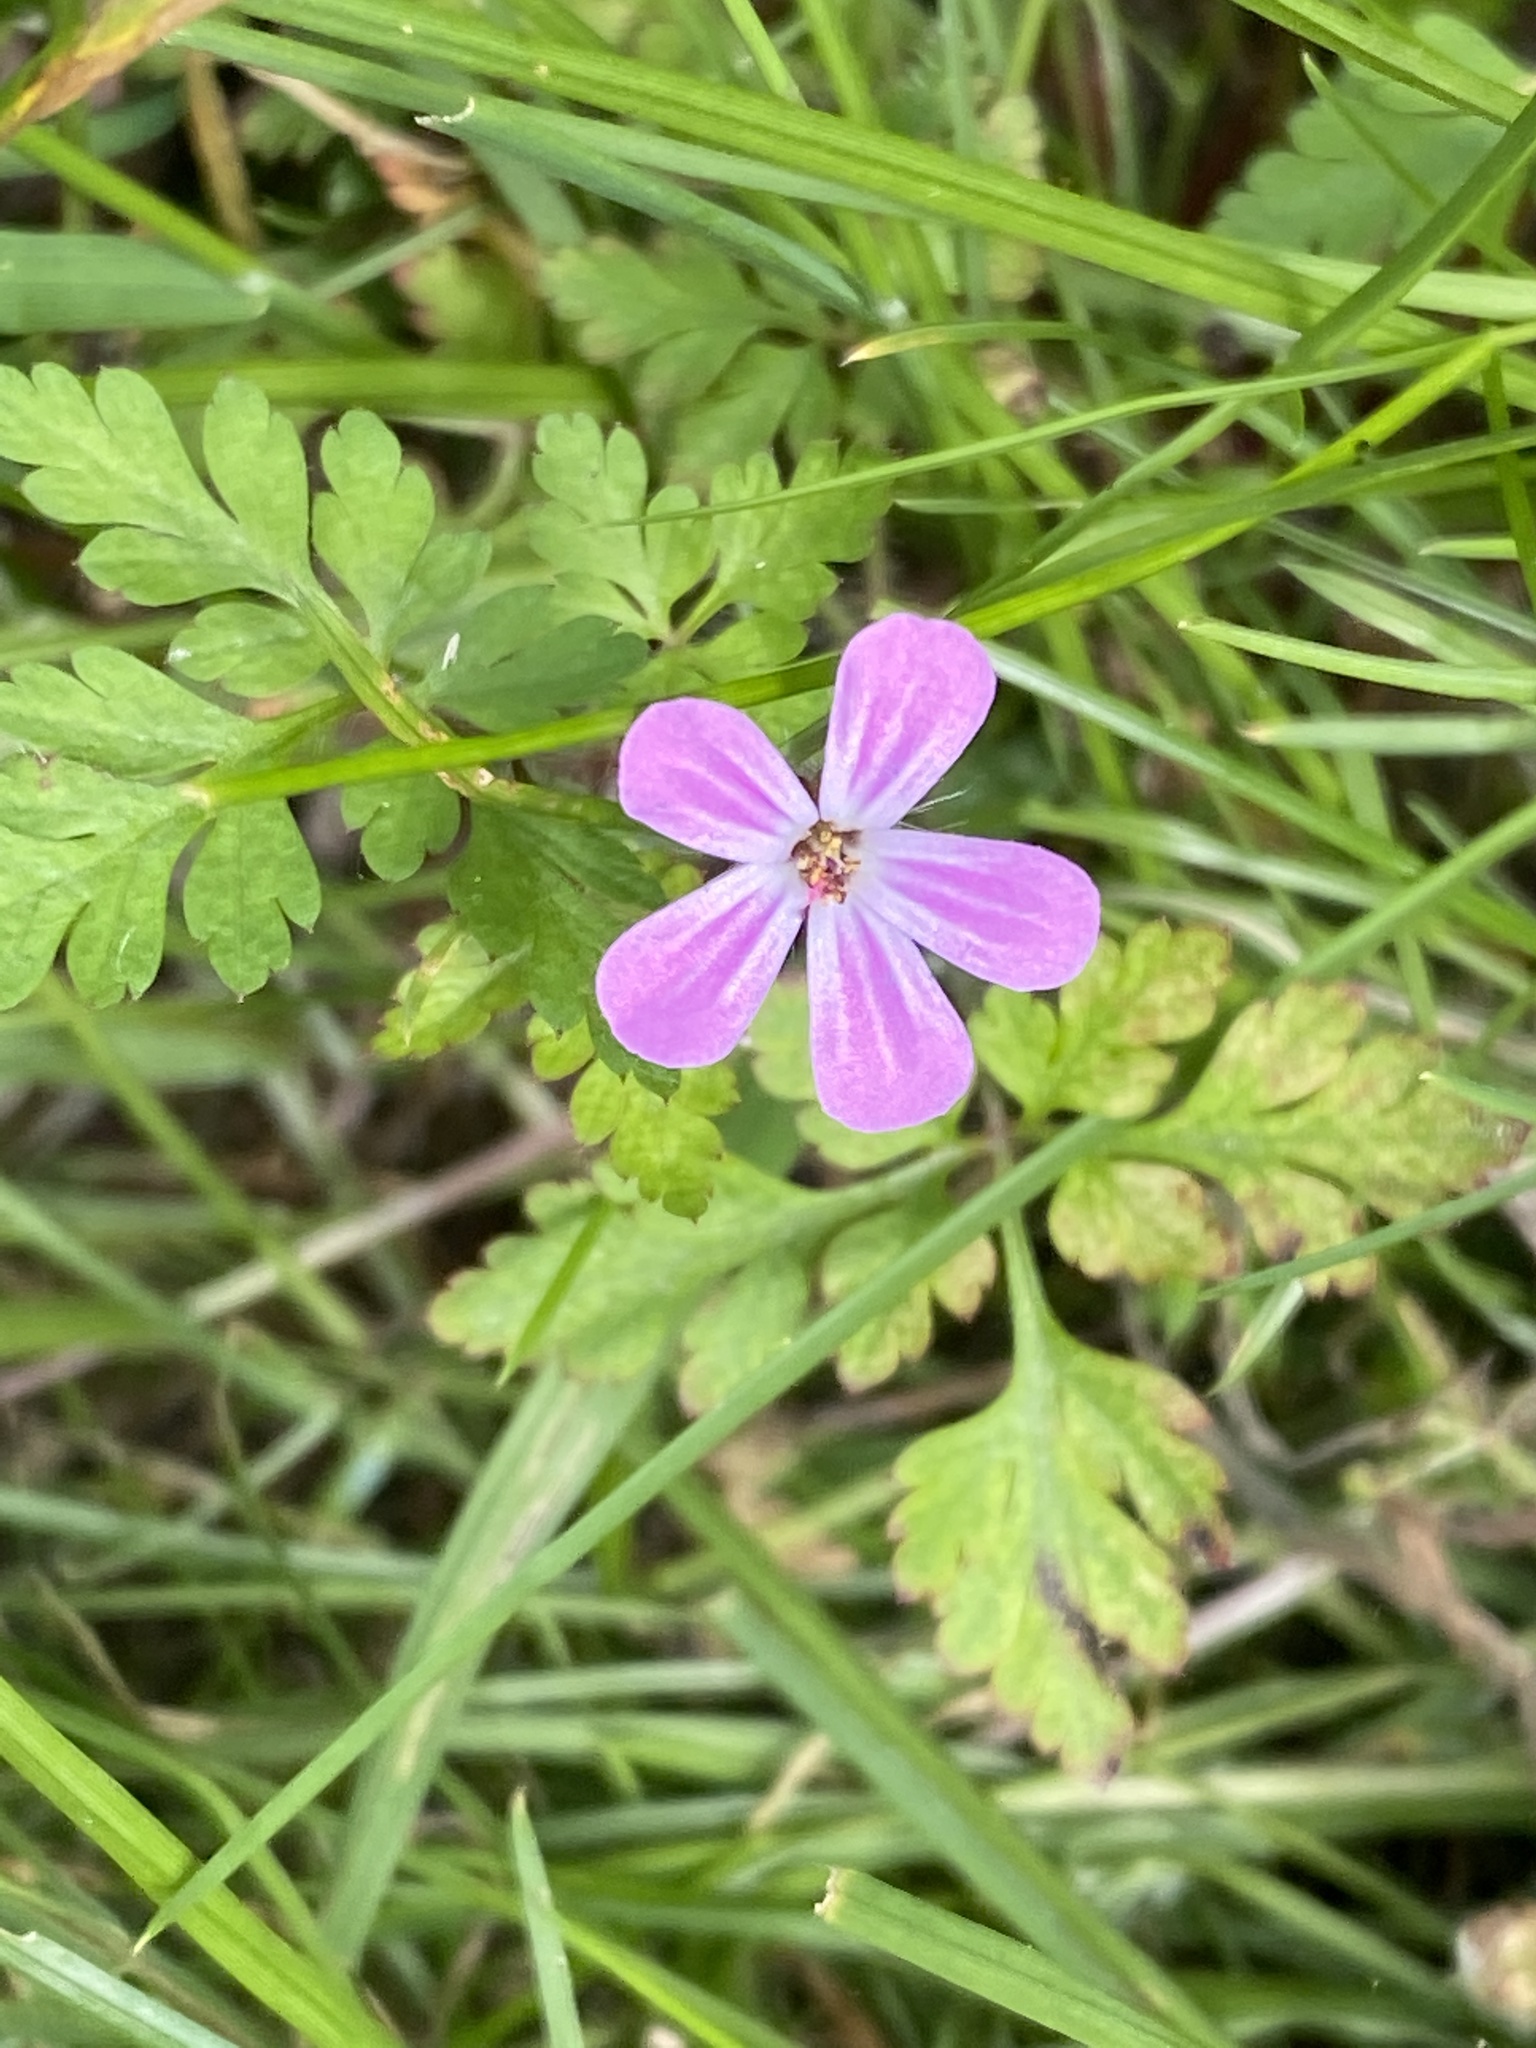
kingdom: Plantae
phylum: Tracheophyta
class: Magnoliopsida
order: Geraniales
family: Geraniaceae
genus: Geranium
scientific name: Geranium robertianum
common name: Herb-robert
